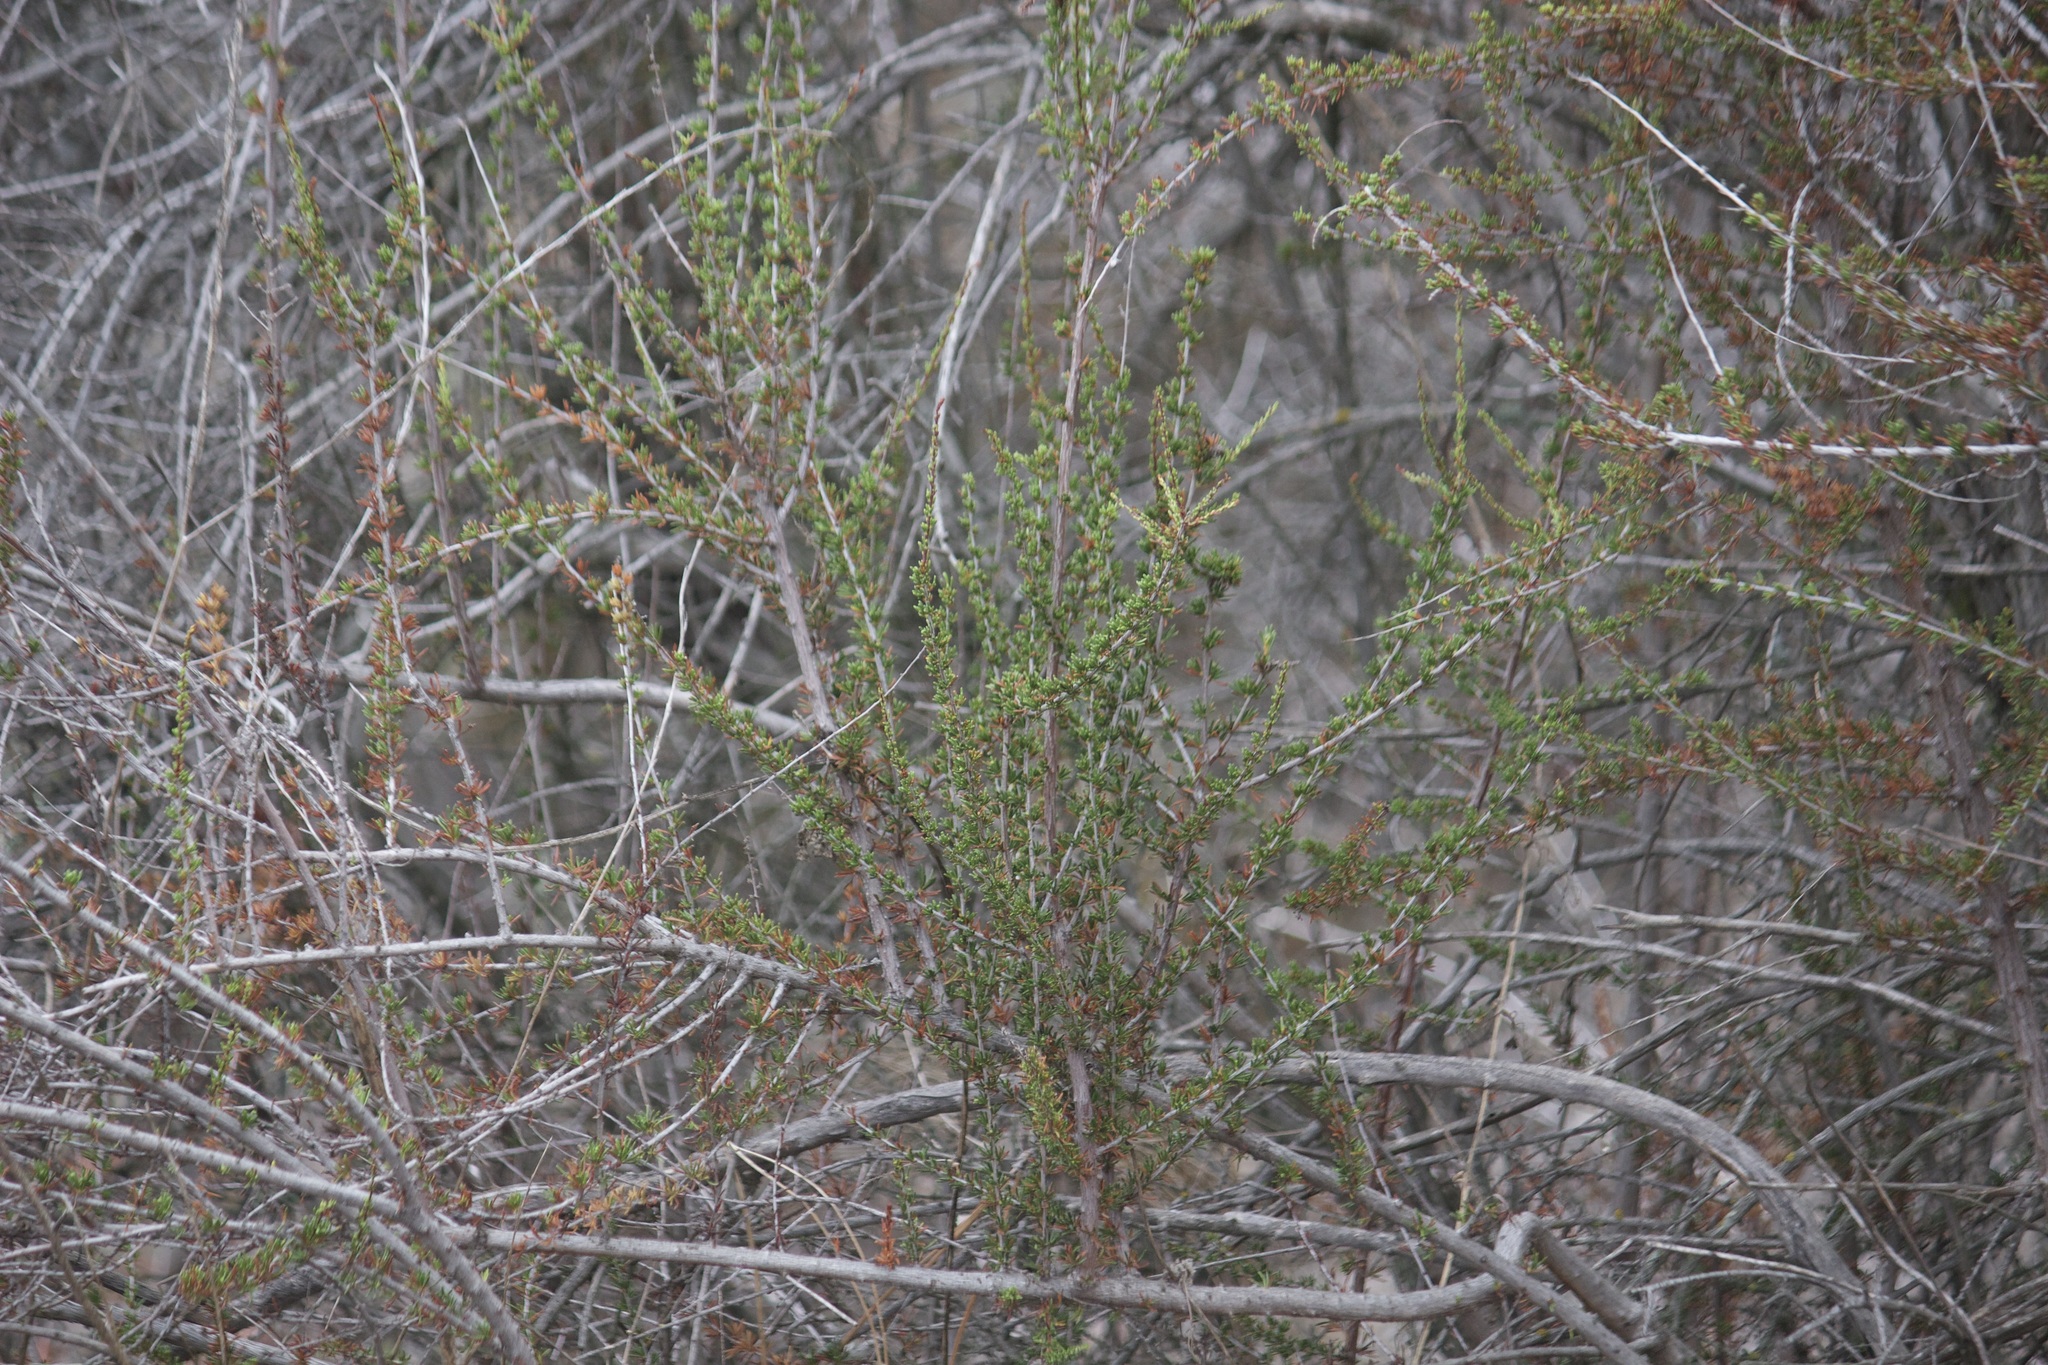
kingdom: Plantae
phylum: Tracheophyta
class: Magnoliopsida
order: Rosales
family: Rosaceae
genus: Adenostoma
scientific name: Adenostoma fasciculatum
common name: Chamise
